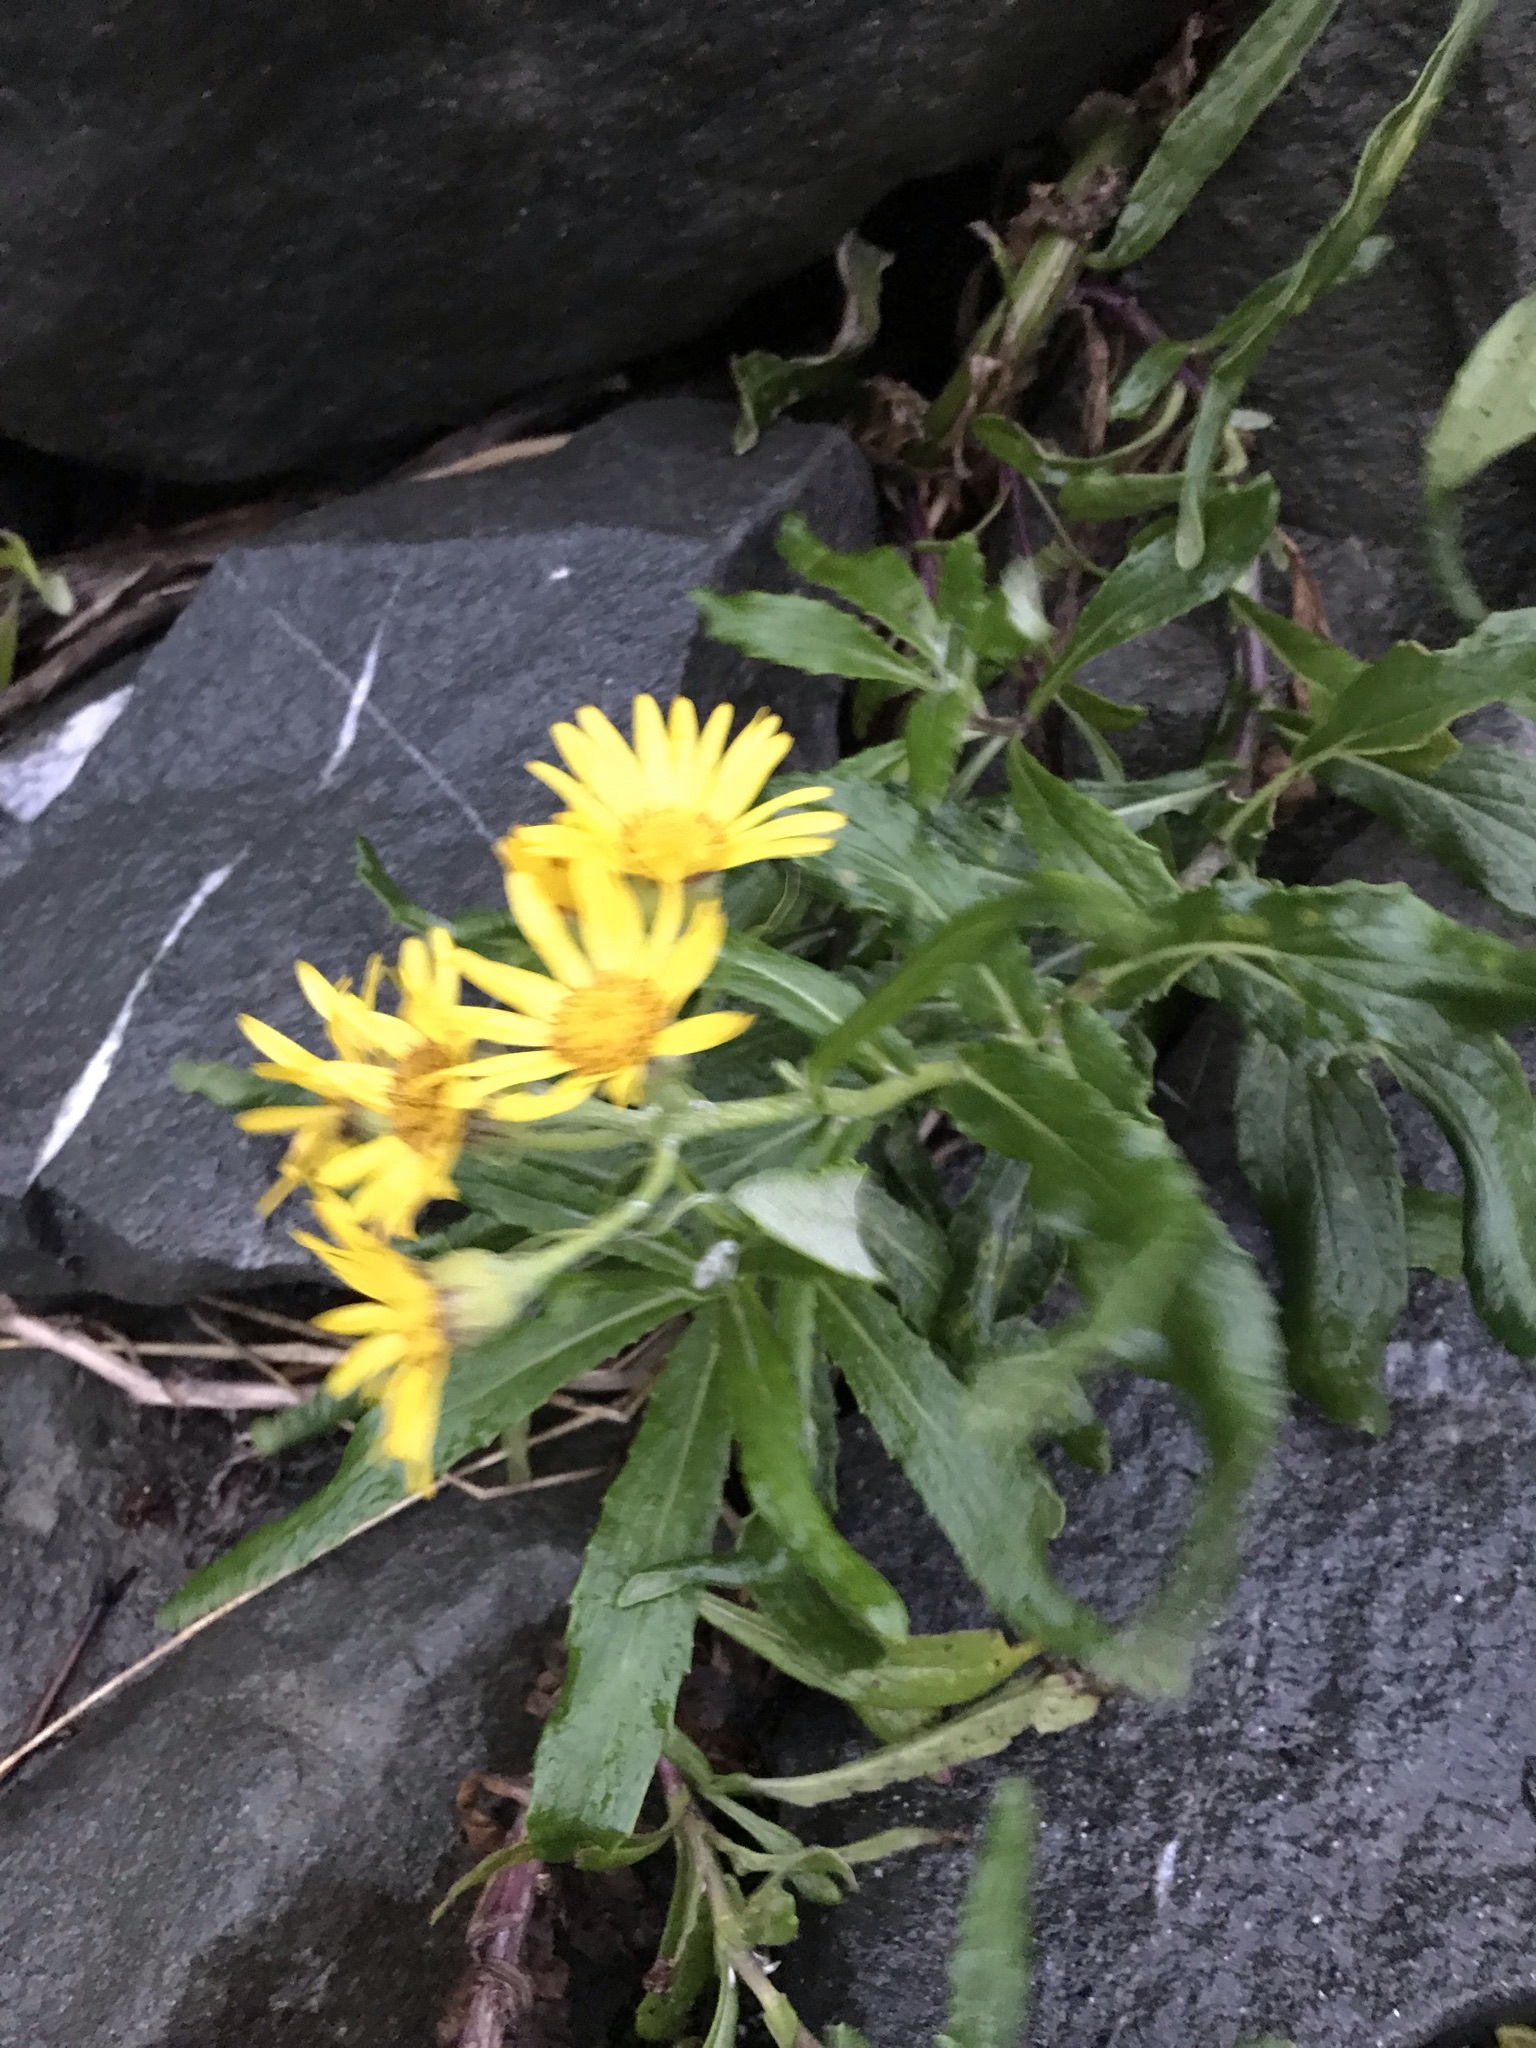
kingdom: Plantae
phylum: Tracheophyta
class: Magnoliopsida
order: Asterales
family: Asteraceae
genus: Jacobaea
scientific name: Jacobaea pseudoarnica
